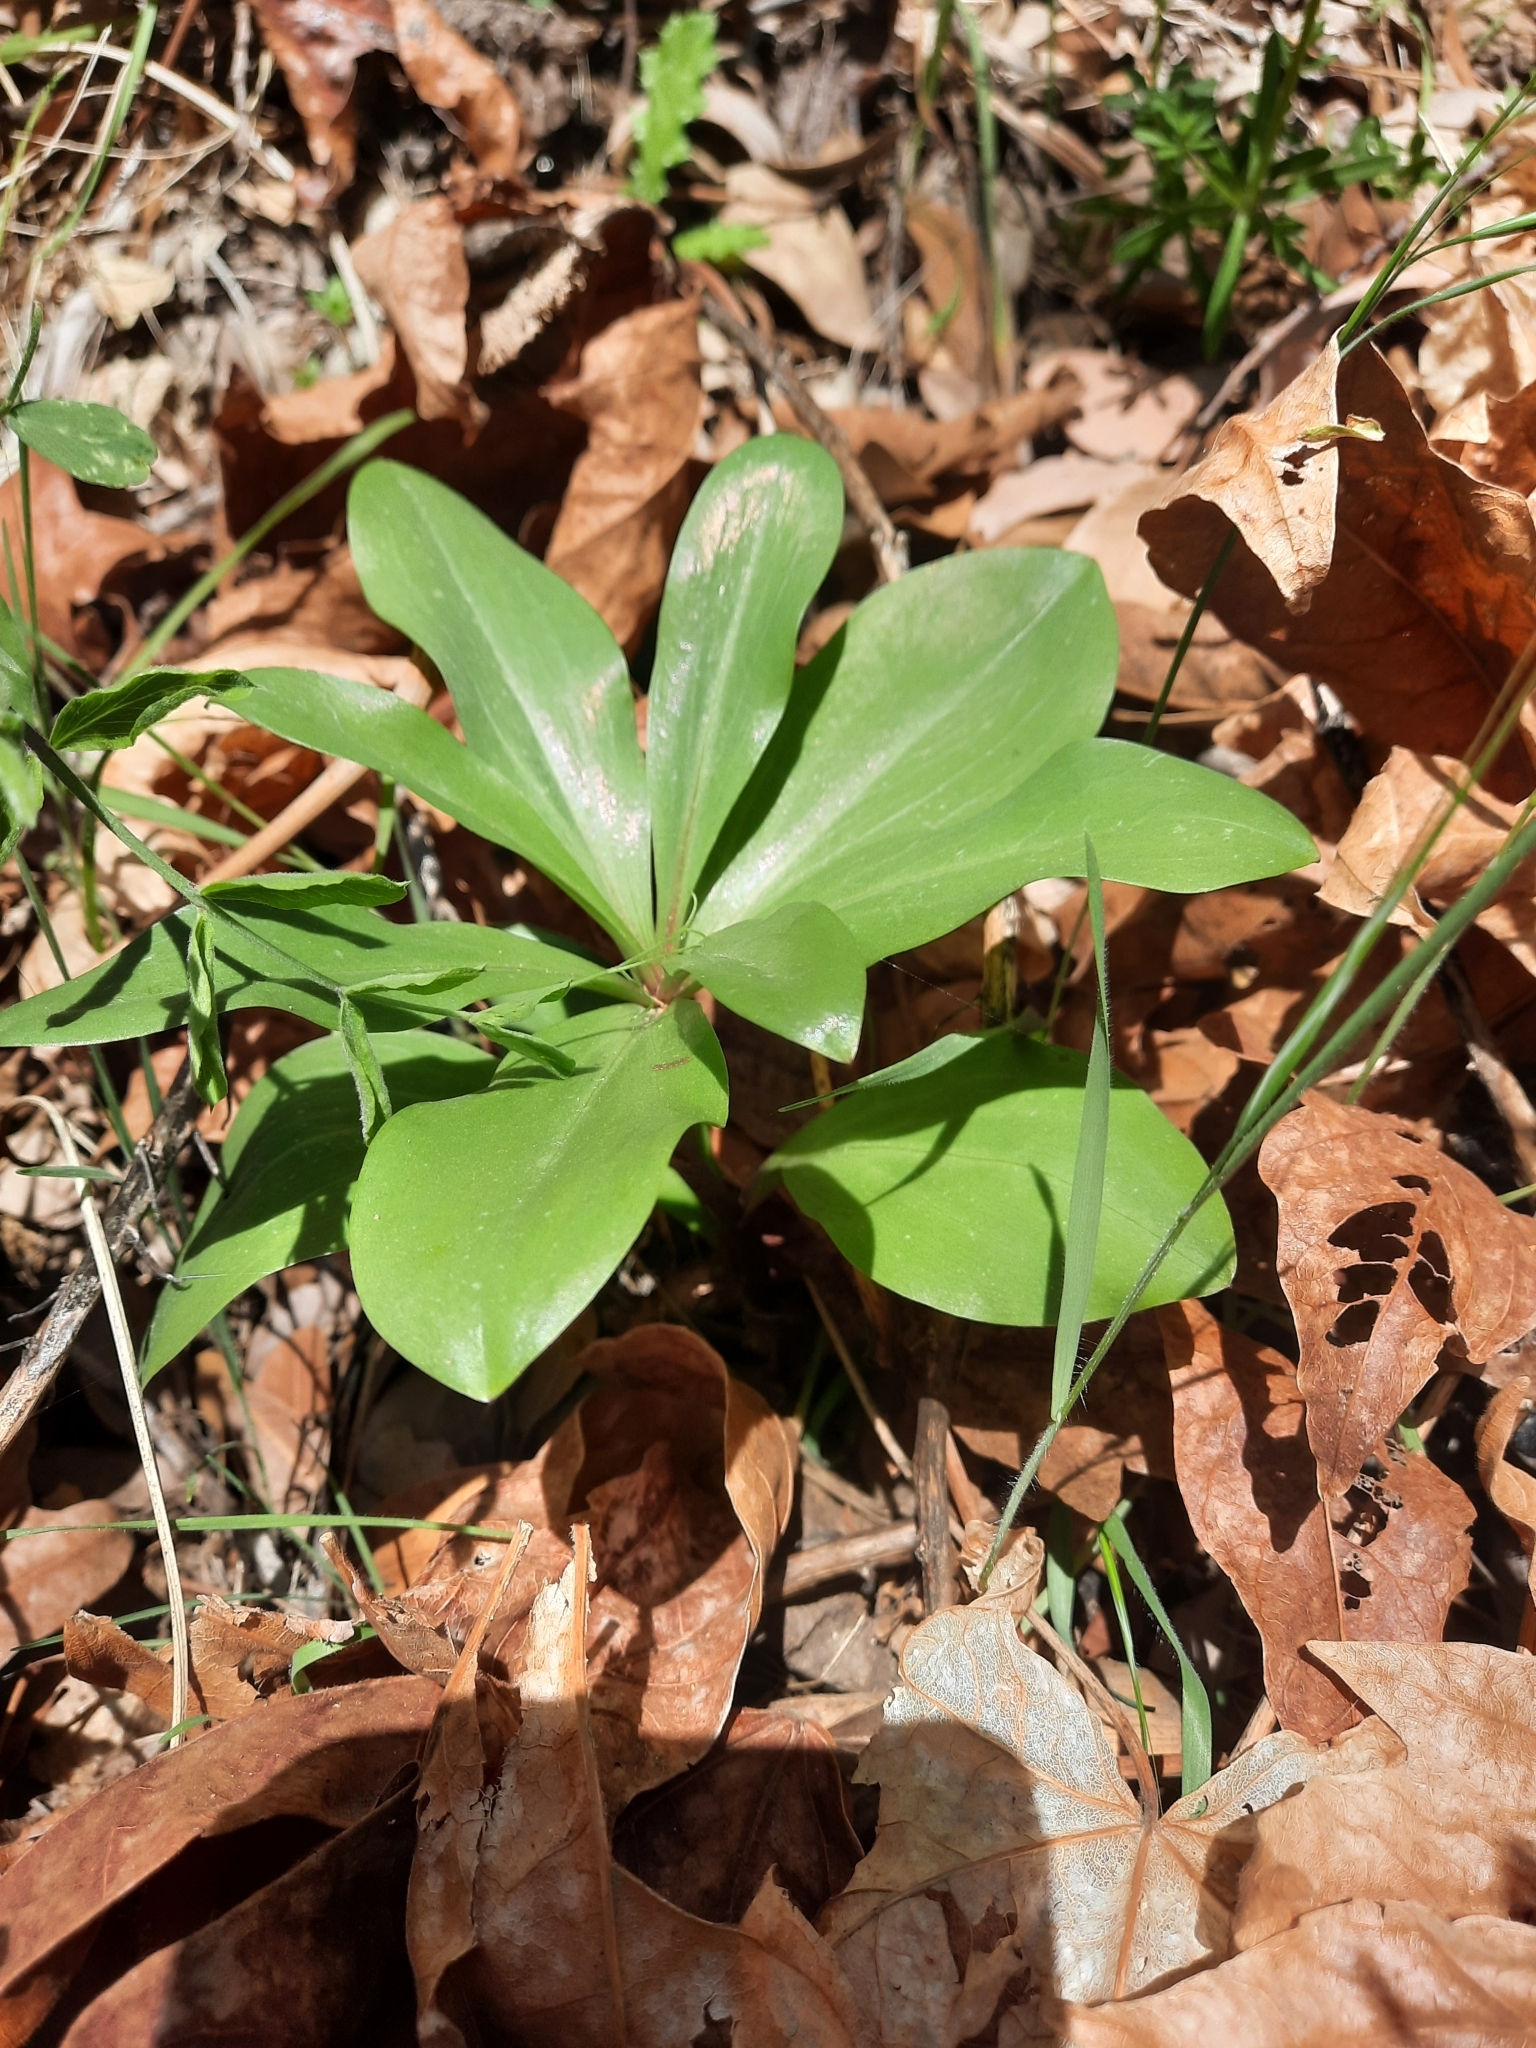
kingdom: Plantae
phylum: Tracheophyta
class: Liliopsida
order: Liliales
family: Liliaceae
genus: Lilium
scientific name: Lilium humboldtii
